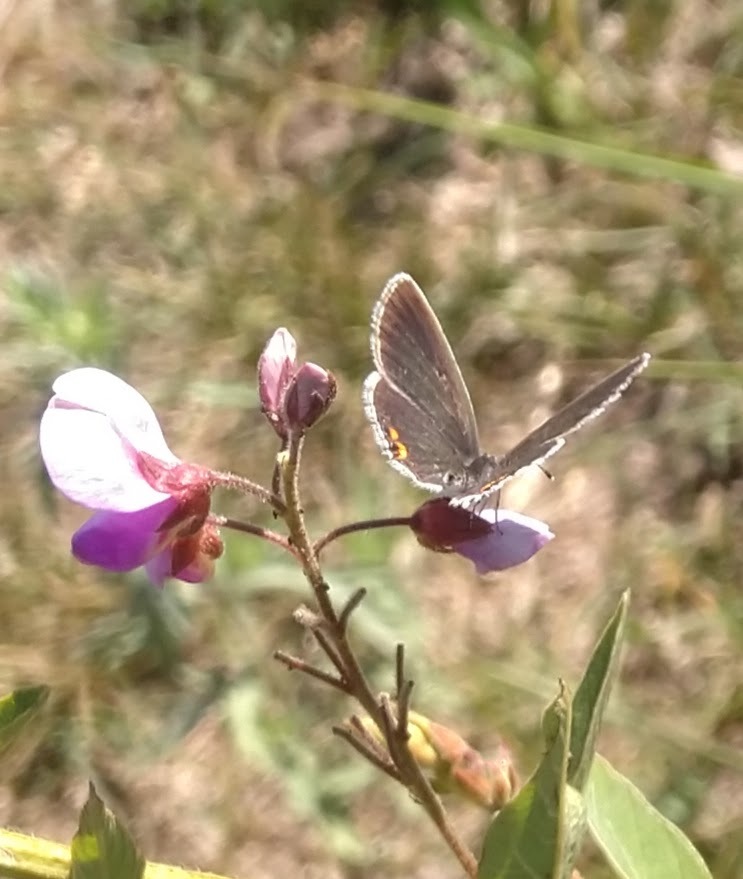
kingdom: Animalia
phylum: Arthropoda
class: Insecta
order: Lepidoptera
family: Lycaenidae
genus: Elkalyce
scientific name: Elkalyce comyntas
